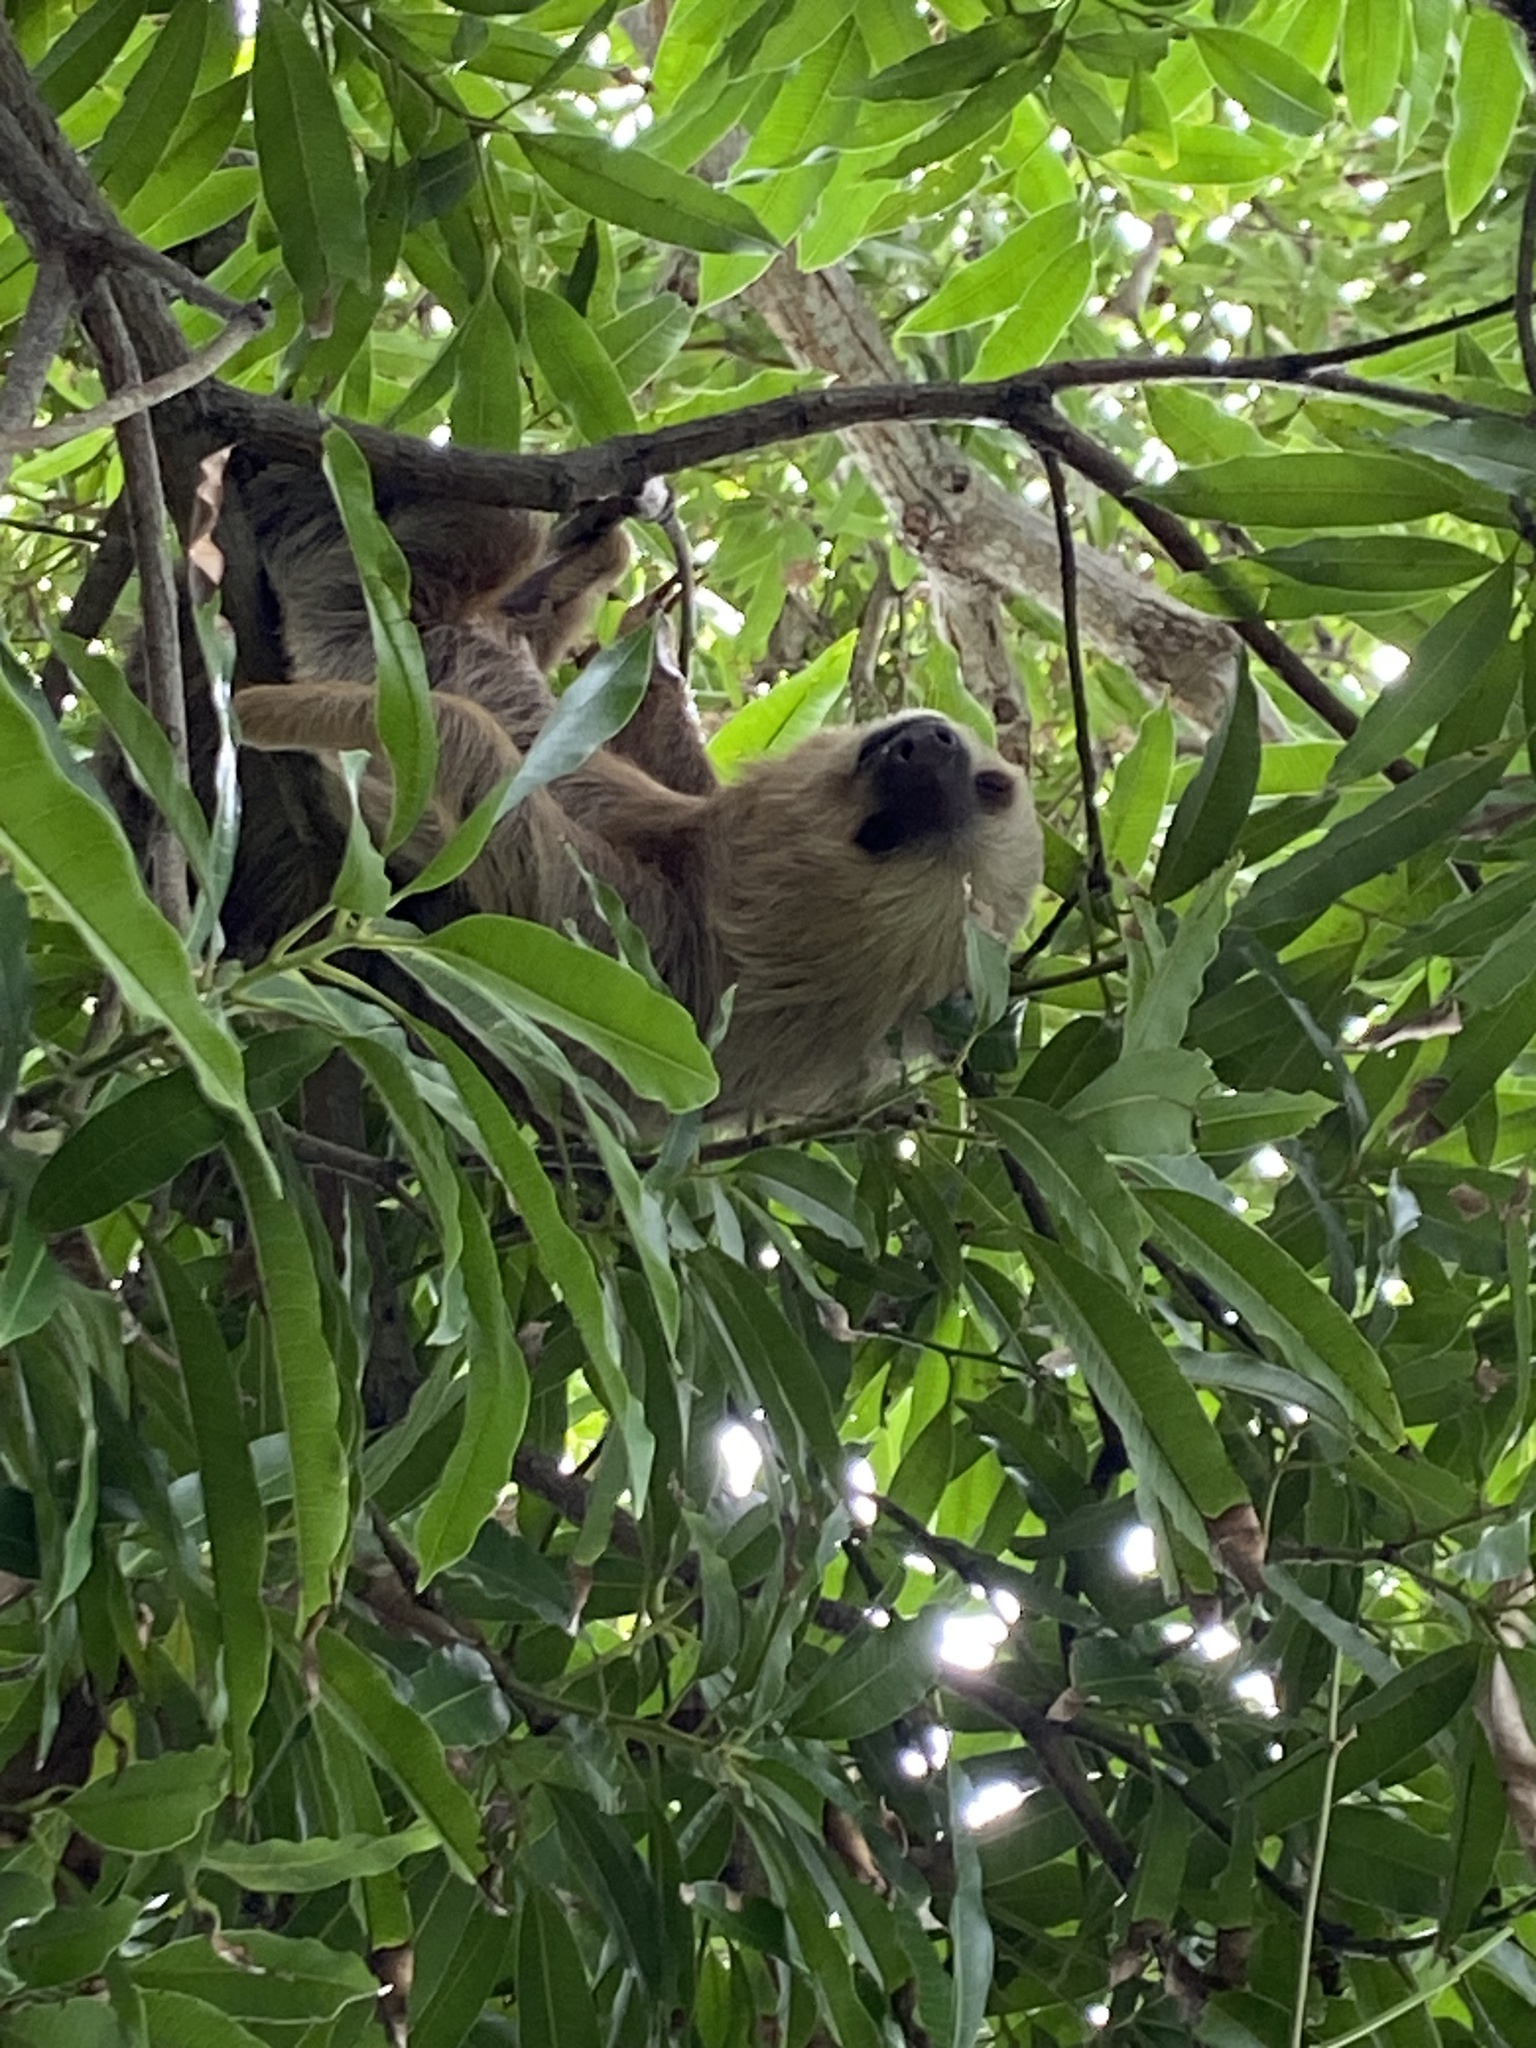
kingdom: Animalia
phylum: Chordata
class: Mammalia
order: Pilosa
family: Megalonychidae
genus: Choloepus
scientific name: Choloepus hoffmanni
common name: Hoffmann's two-toed sloth
